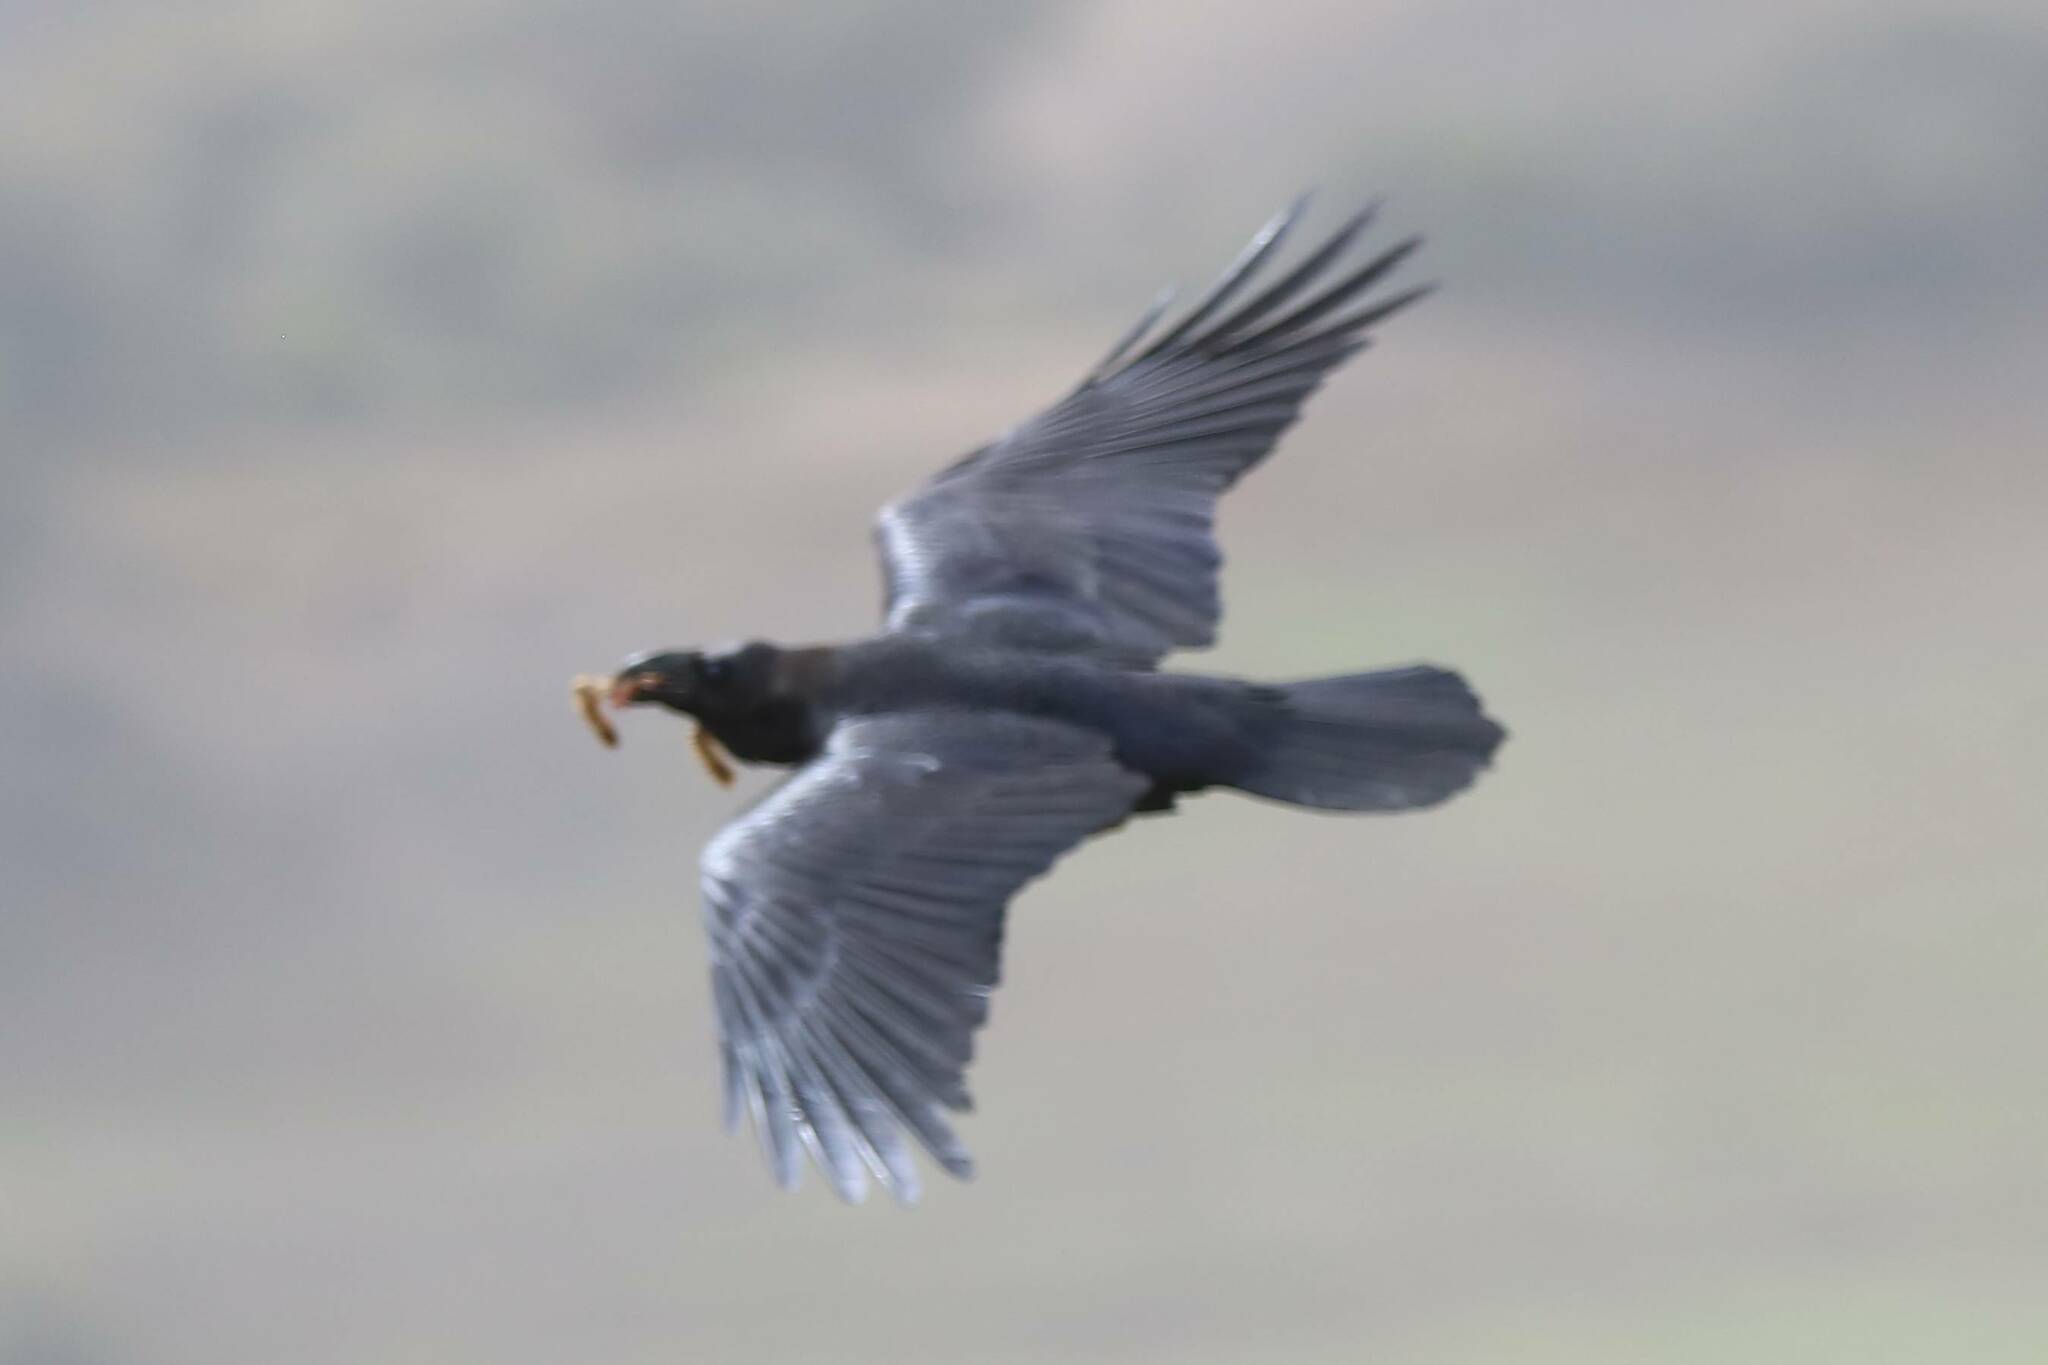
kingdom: Animalia
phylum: Chordata
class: Aves
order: Passeriformes
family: Corvidae
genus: Corvus
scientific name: Corvus corax
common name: Common raven
